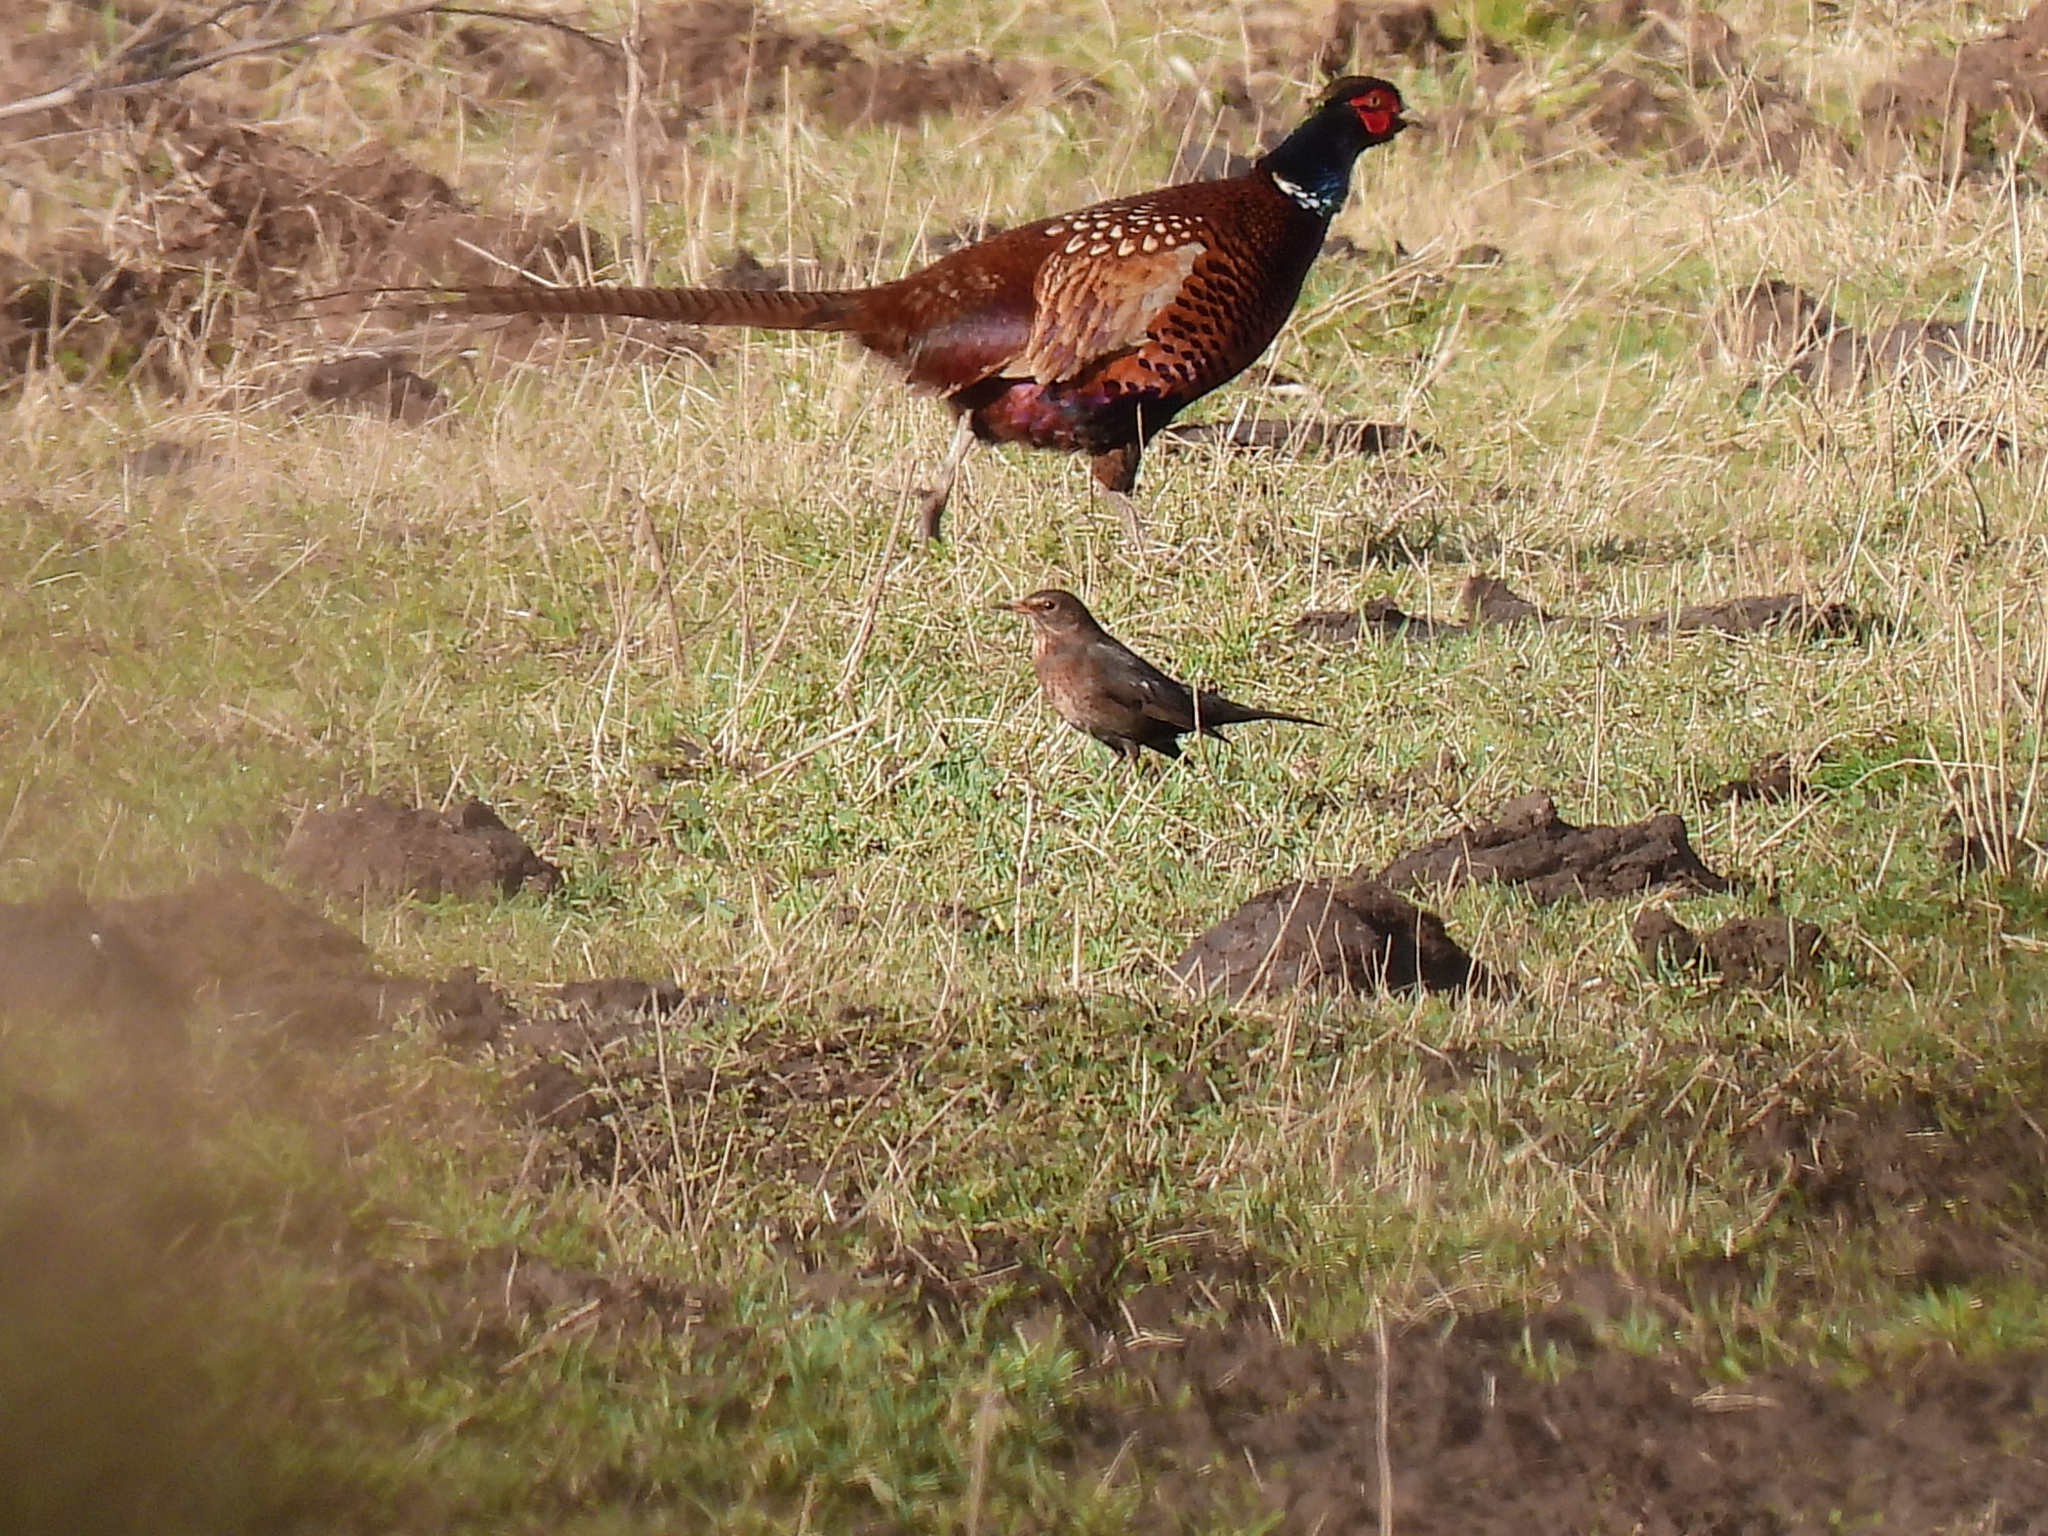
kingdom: Animalia
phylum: Chordata
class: Aves
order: Passeriformes
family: Turdidae
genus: Turdus
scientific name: Turdus merula
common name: Common blackbird
